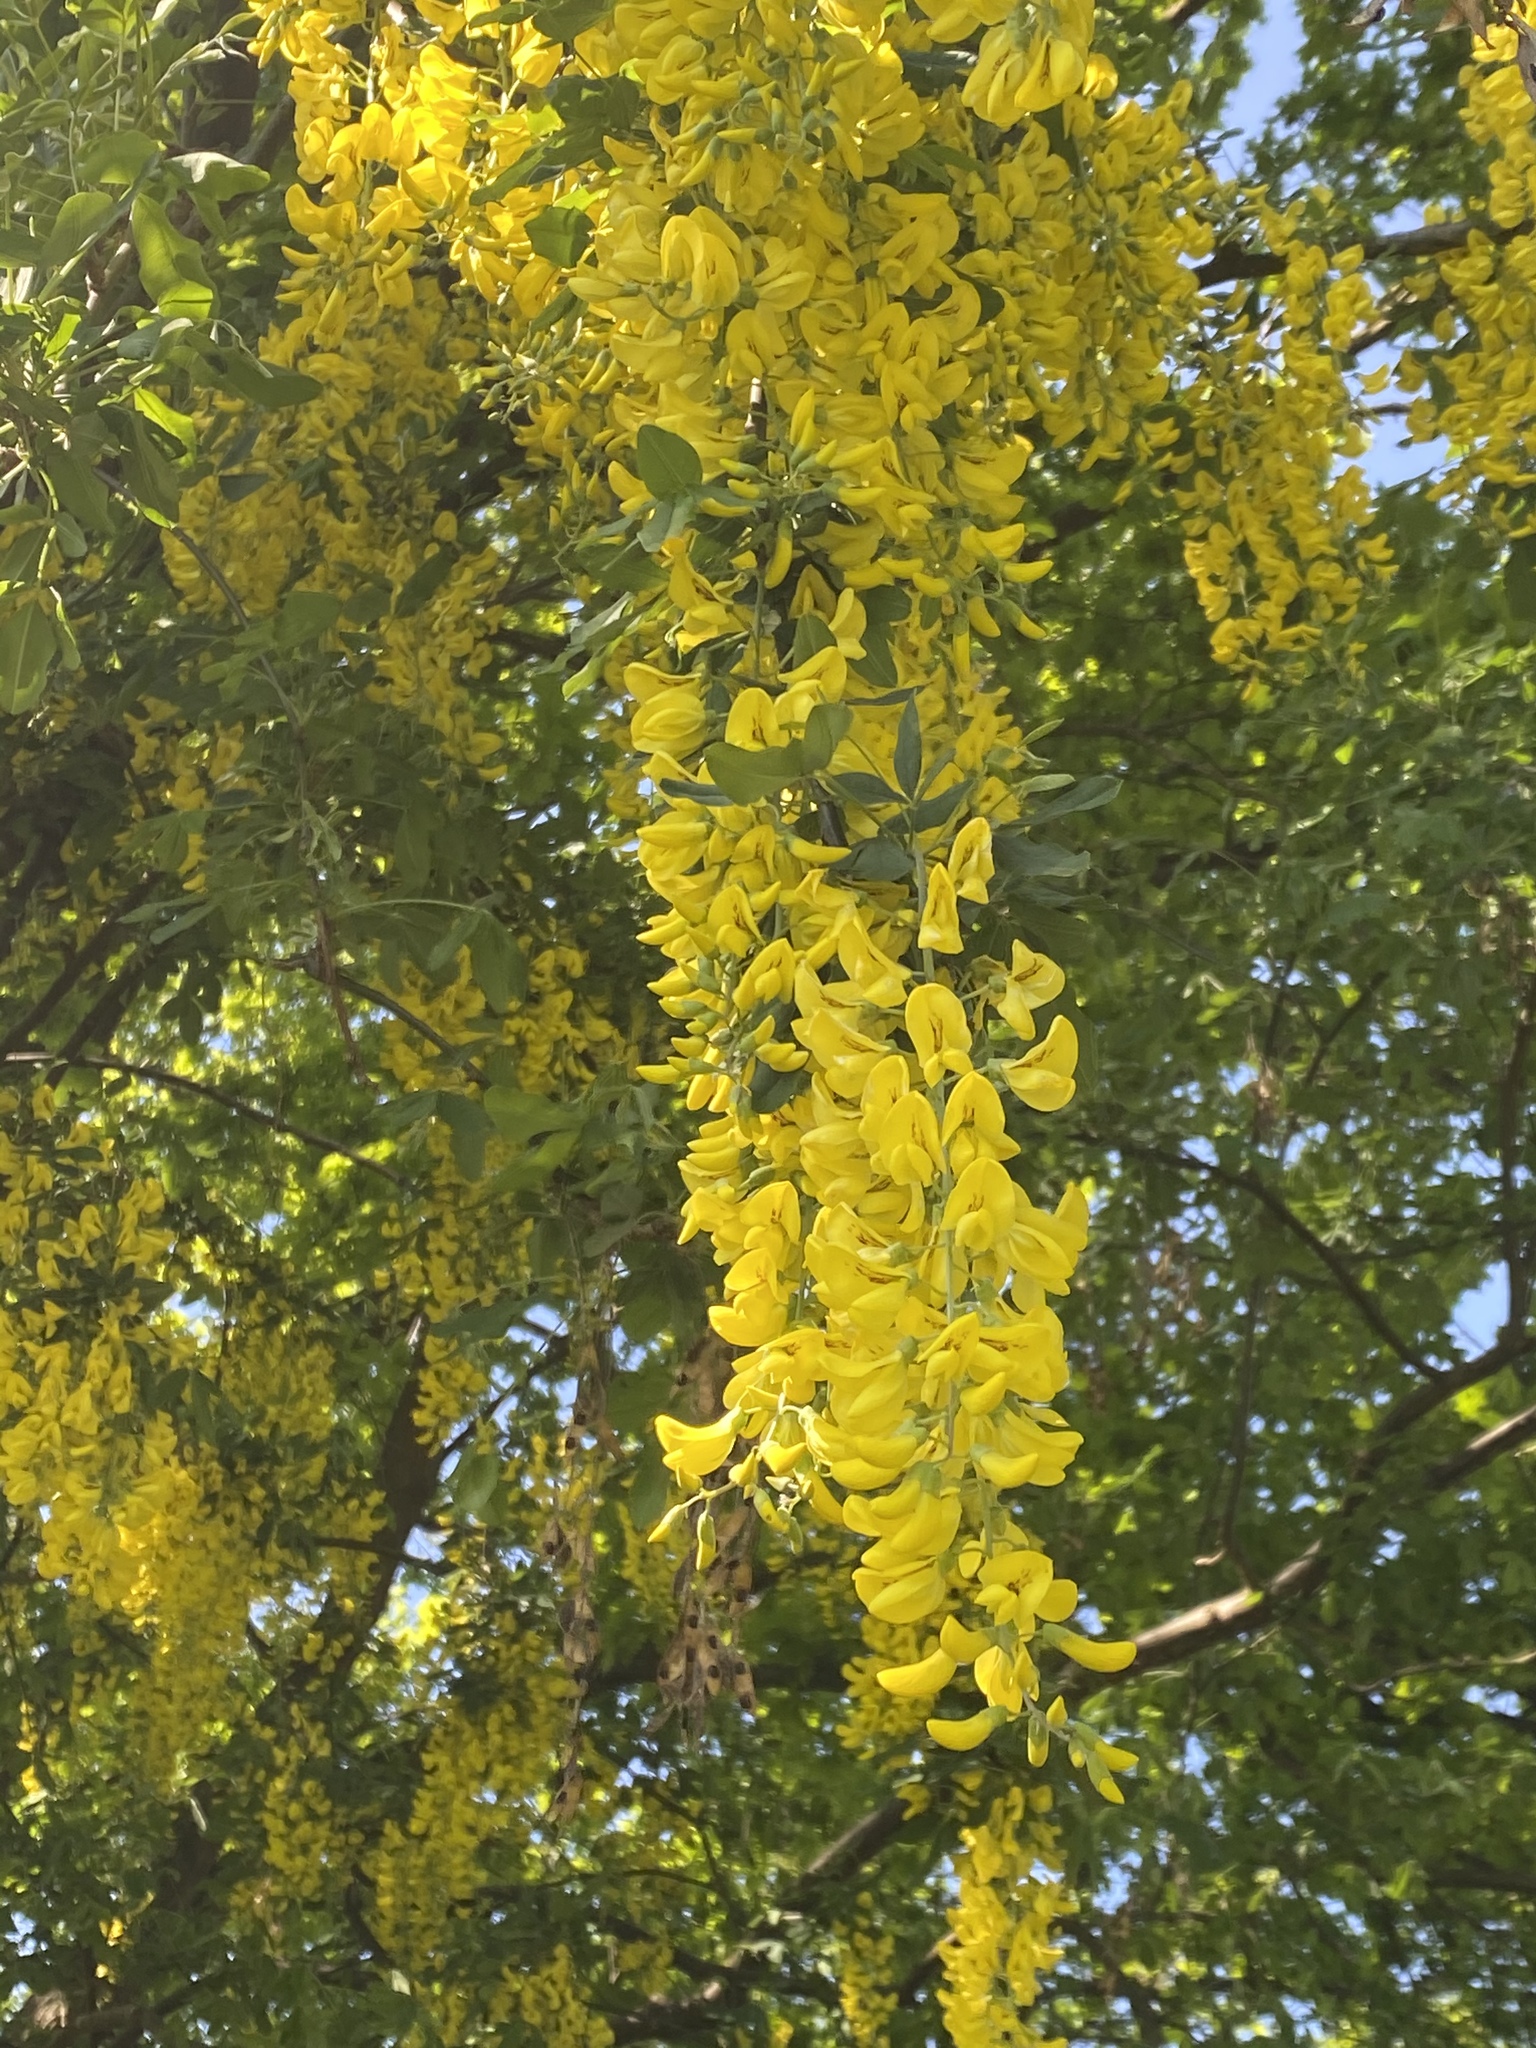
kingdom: Plantae
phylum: Tracheophyta
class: Magnoliopsida
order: Fabales
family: Fabaceae
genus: Laburnum
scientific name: Laburnum anagyroides
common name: Laburnum
